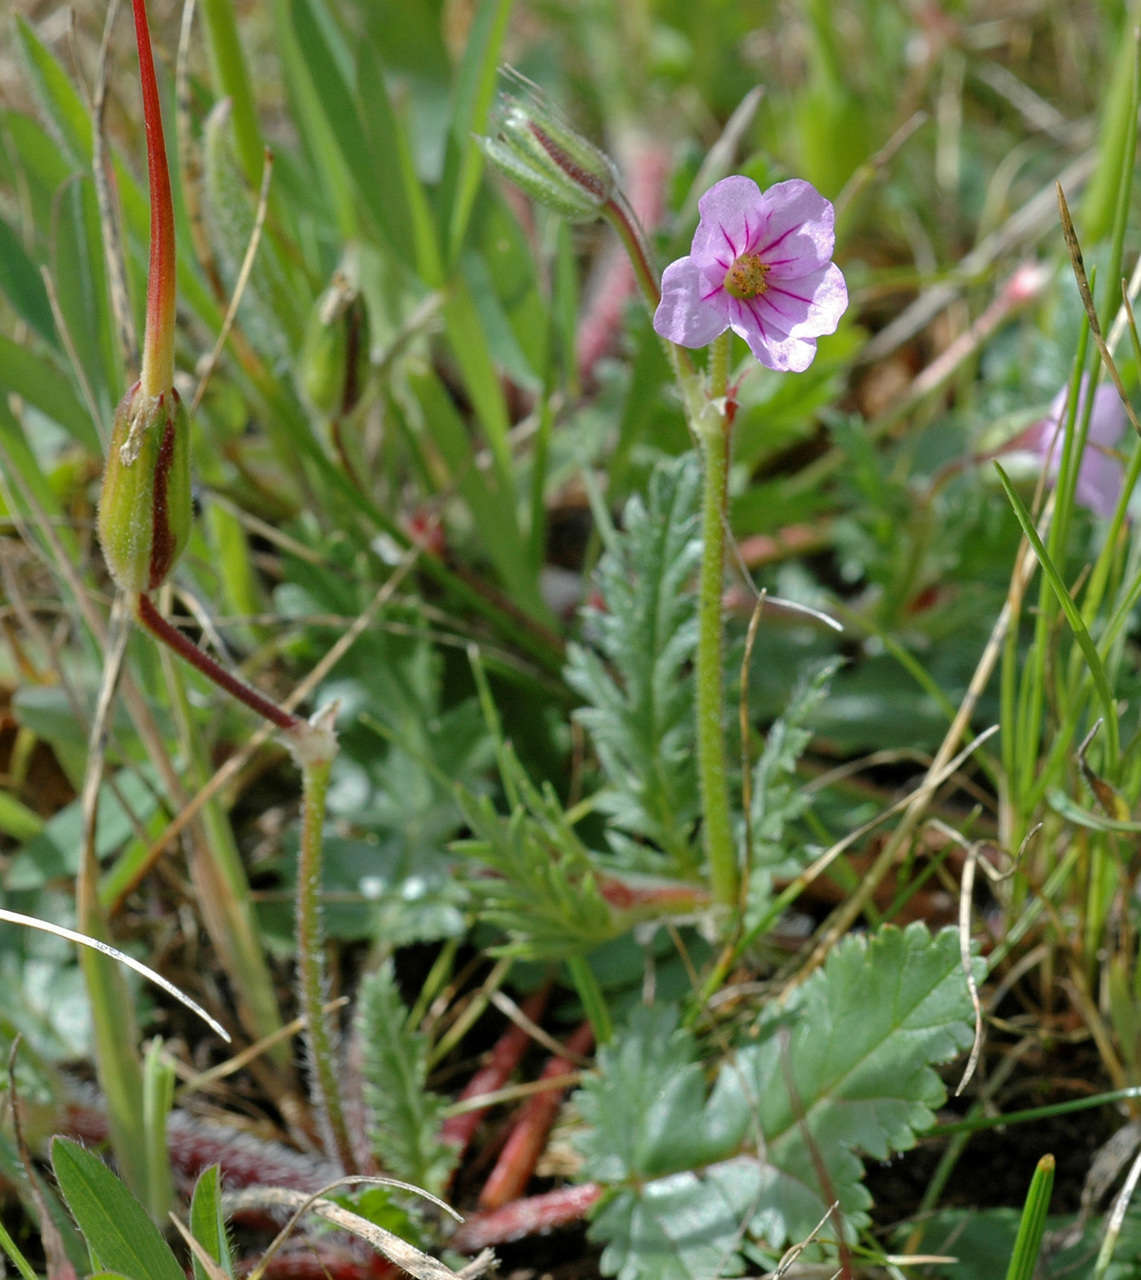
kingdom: Plantae
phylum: Tracheophyta
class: Magnoliopsida
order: Geraniales
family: Geraniaceae
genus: Erodium
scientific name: Erodium botrys
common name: Mediterranean stork's-bill
